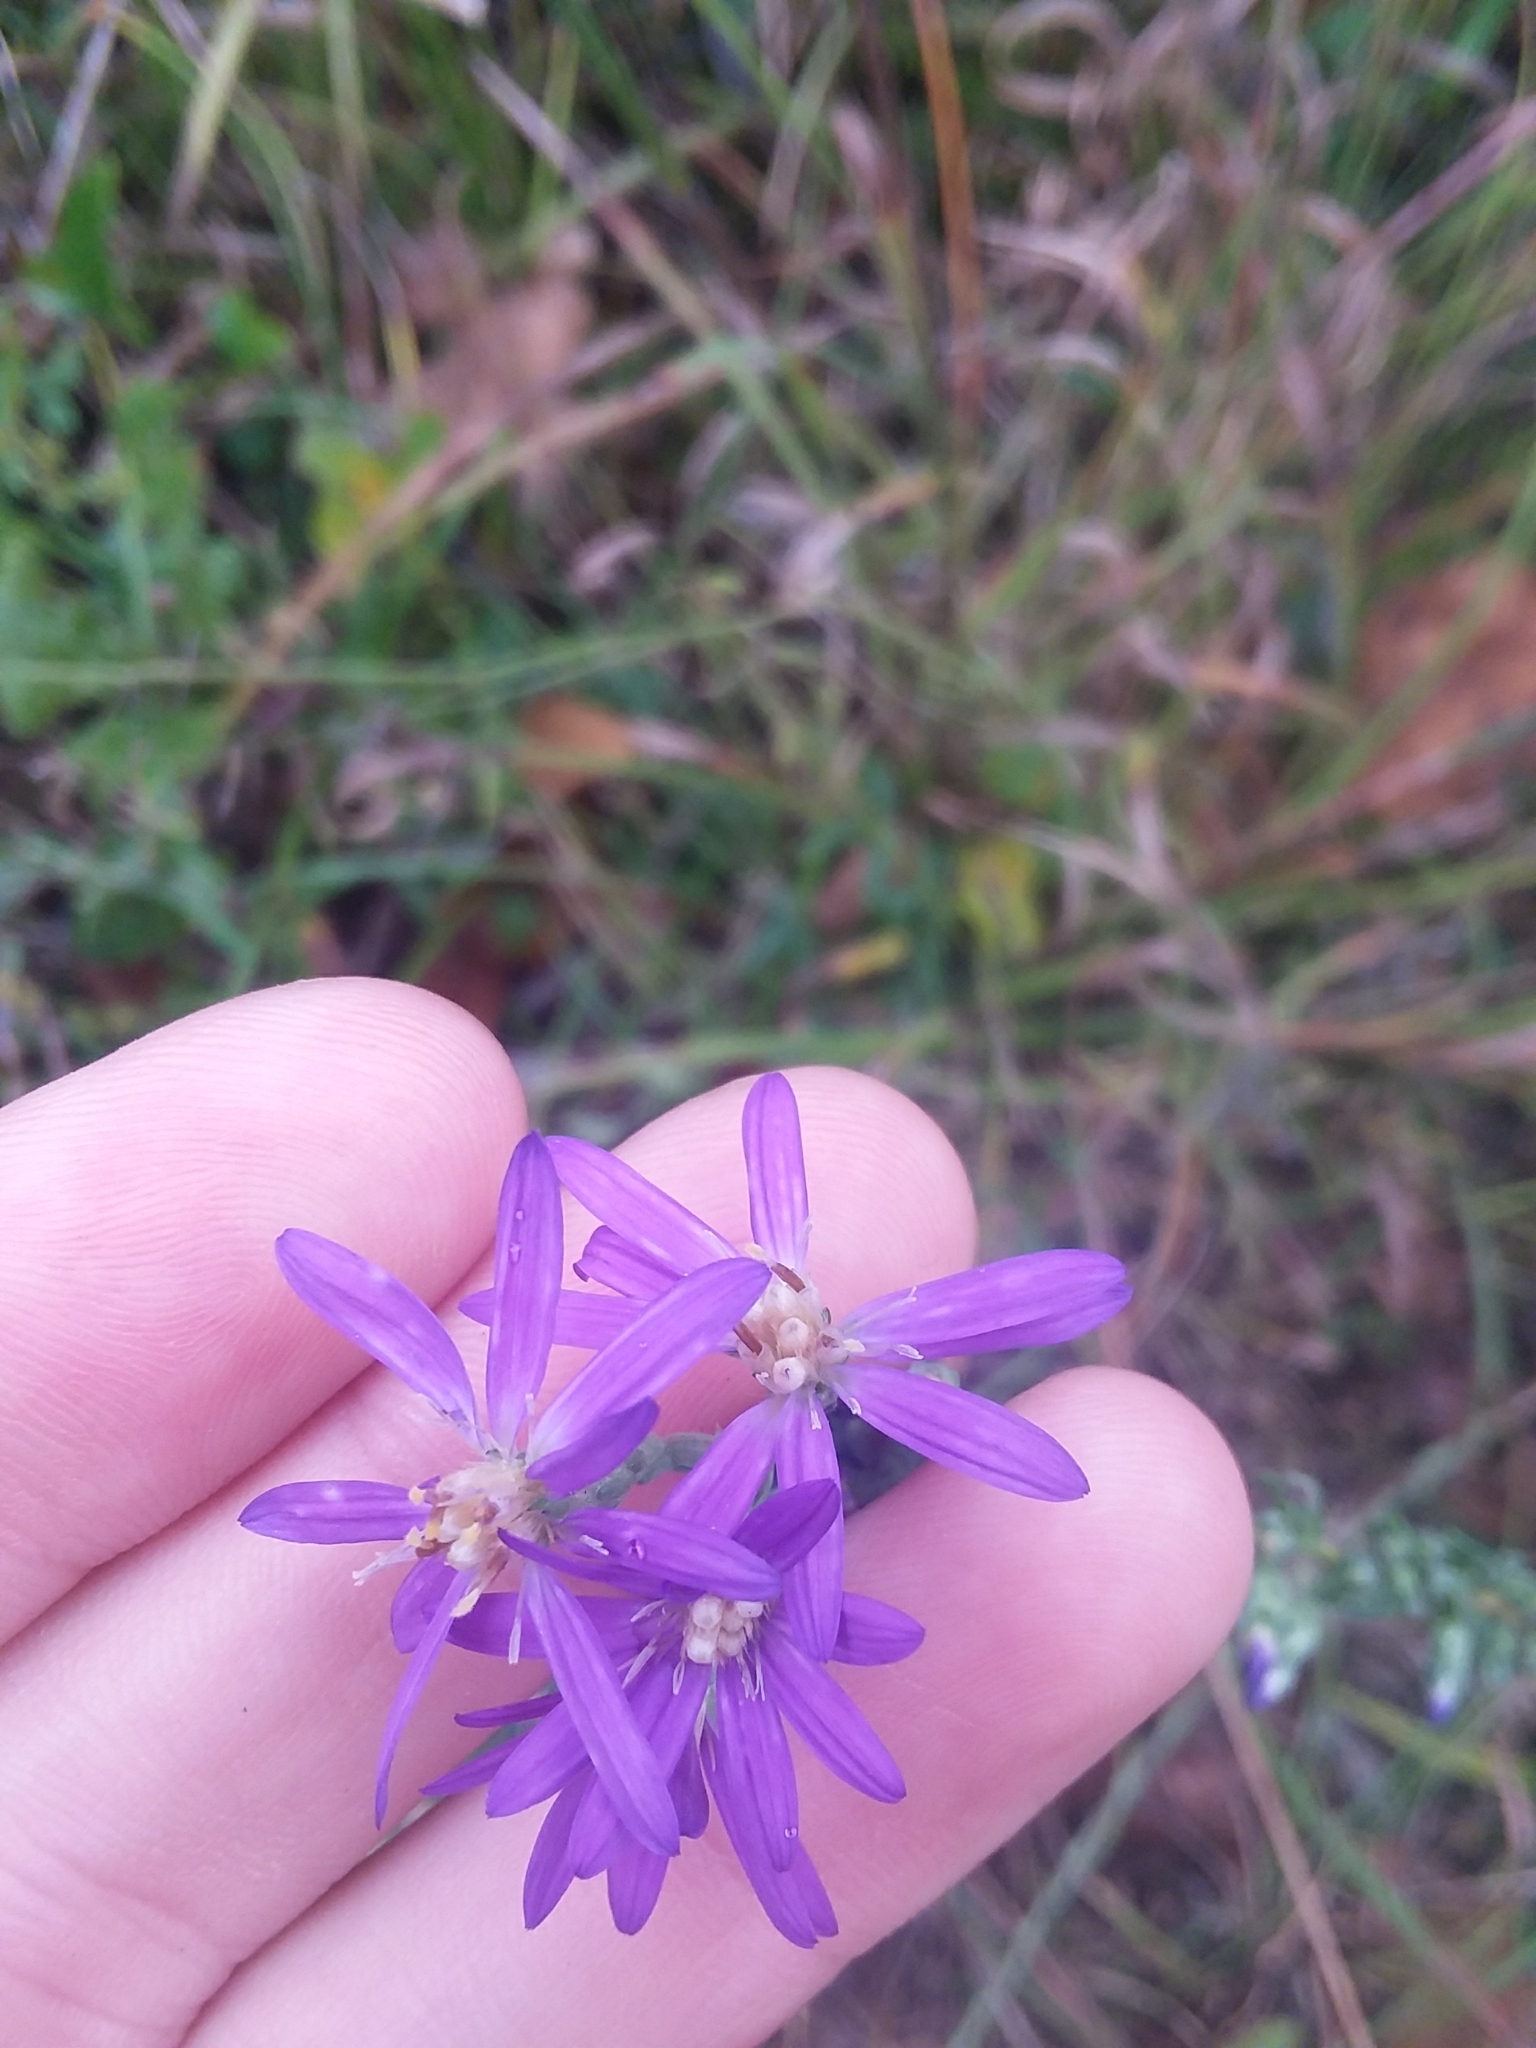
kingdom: Plantae
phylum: Tracheophyta
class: Magnoliopsida
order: Asterales
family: Asteraceae
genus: Symphyotrichum
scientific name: Symphyotrichum concolor
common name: Eastern silver aster
